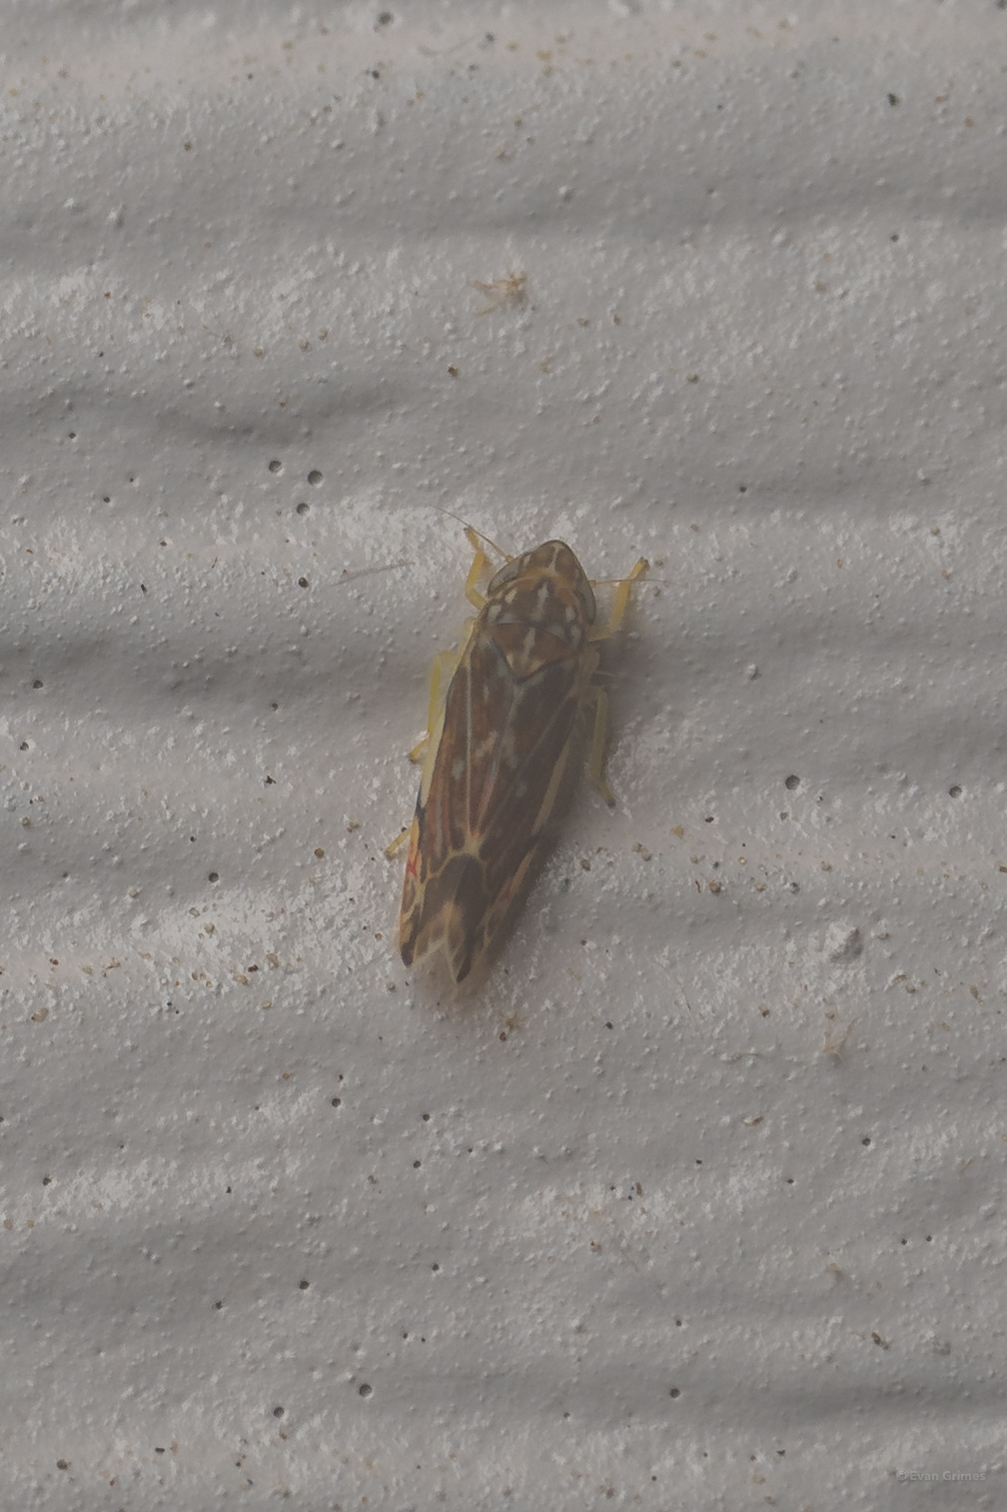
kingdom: Animalia
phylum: Arthropoda
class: Insecta
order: Hemiptera
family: Cicadellidae
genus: Erasmoneura
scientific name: Erasmoneura vulnerata
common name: The wounded leafhopper
